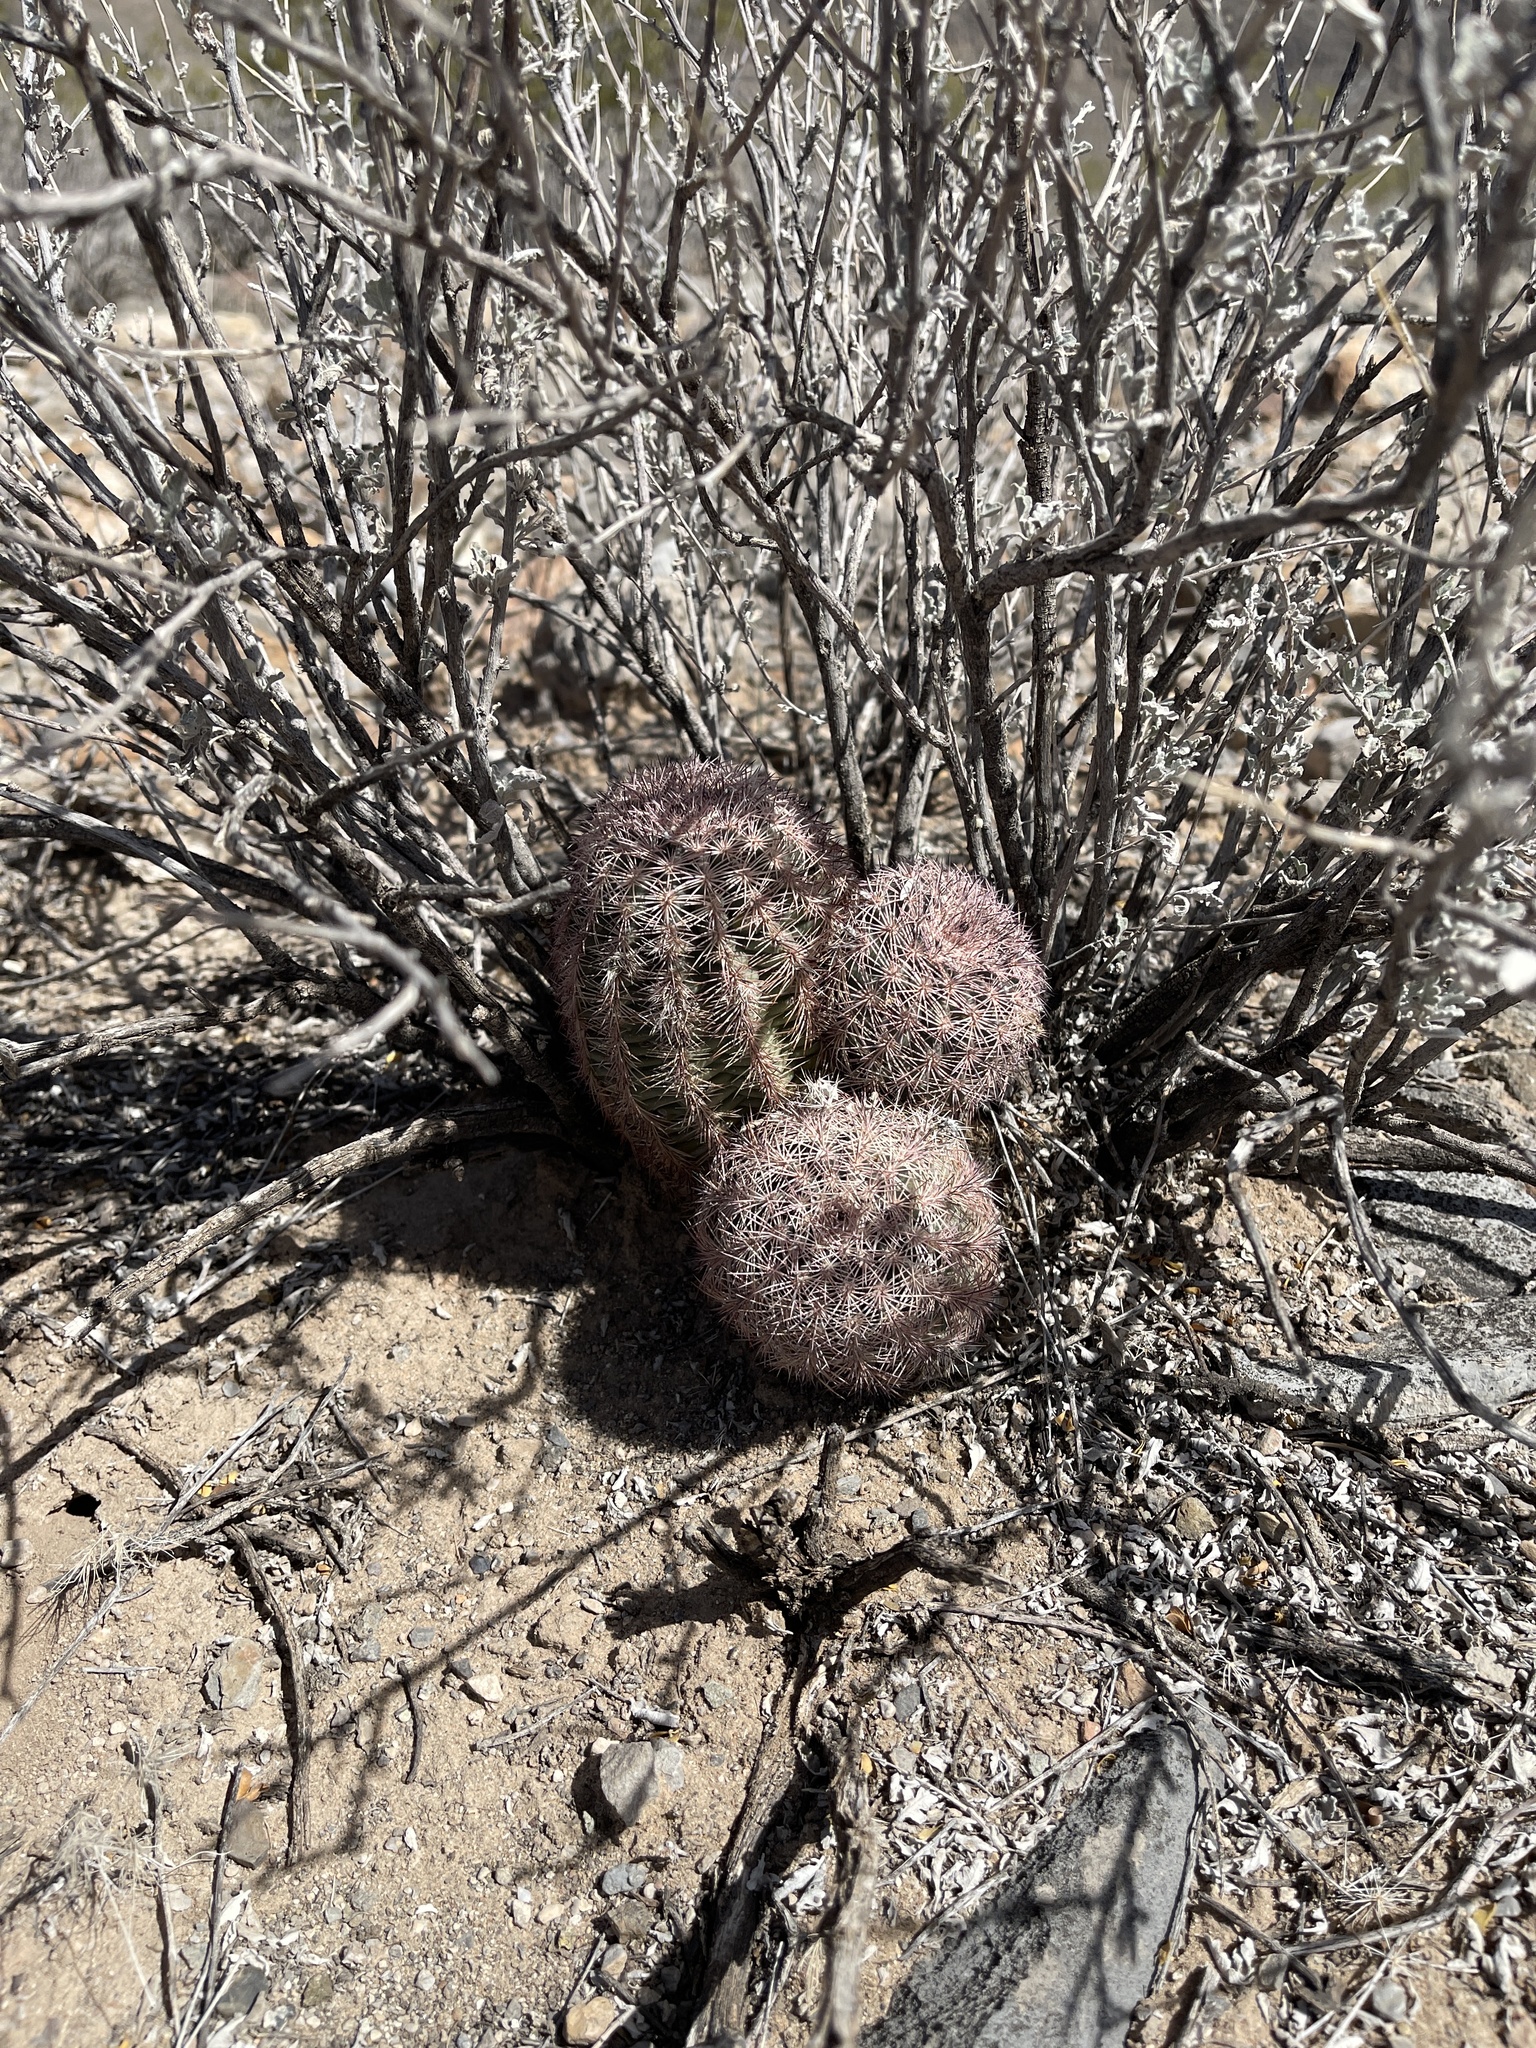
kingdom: Plantae
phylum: Tracheophyta
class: Magnoliopsida
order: Caryophyllales
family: Cactaceae
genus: Echinocereus
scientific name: Echinocereus dasyacanthus
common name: Spiny hedgehog cactus
